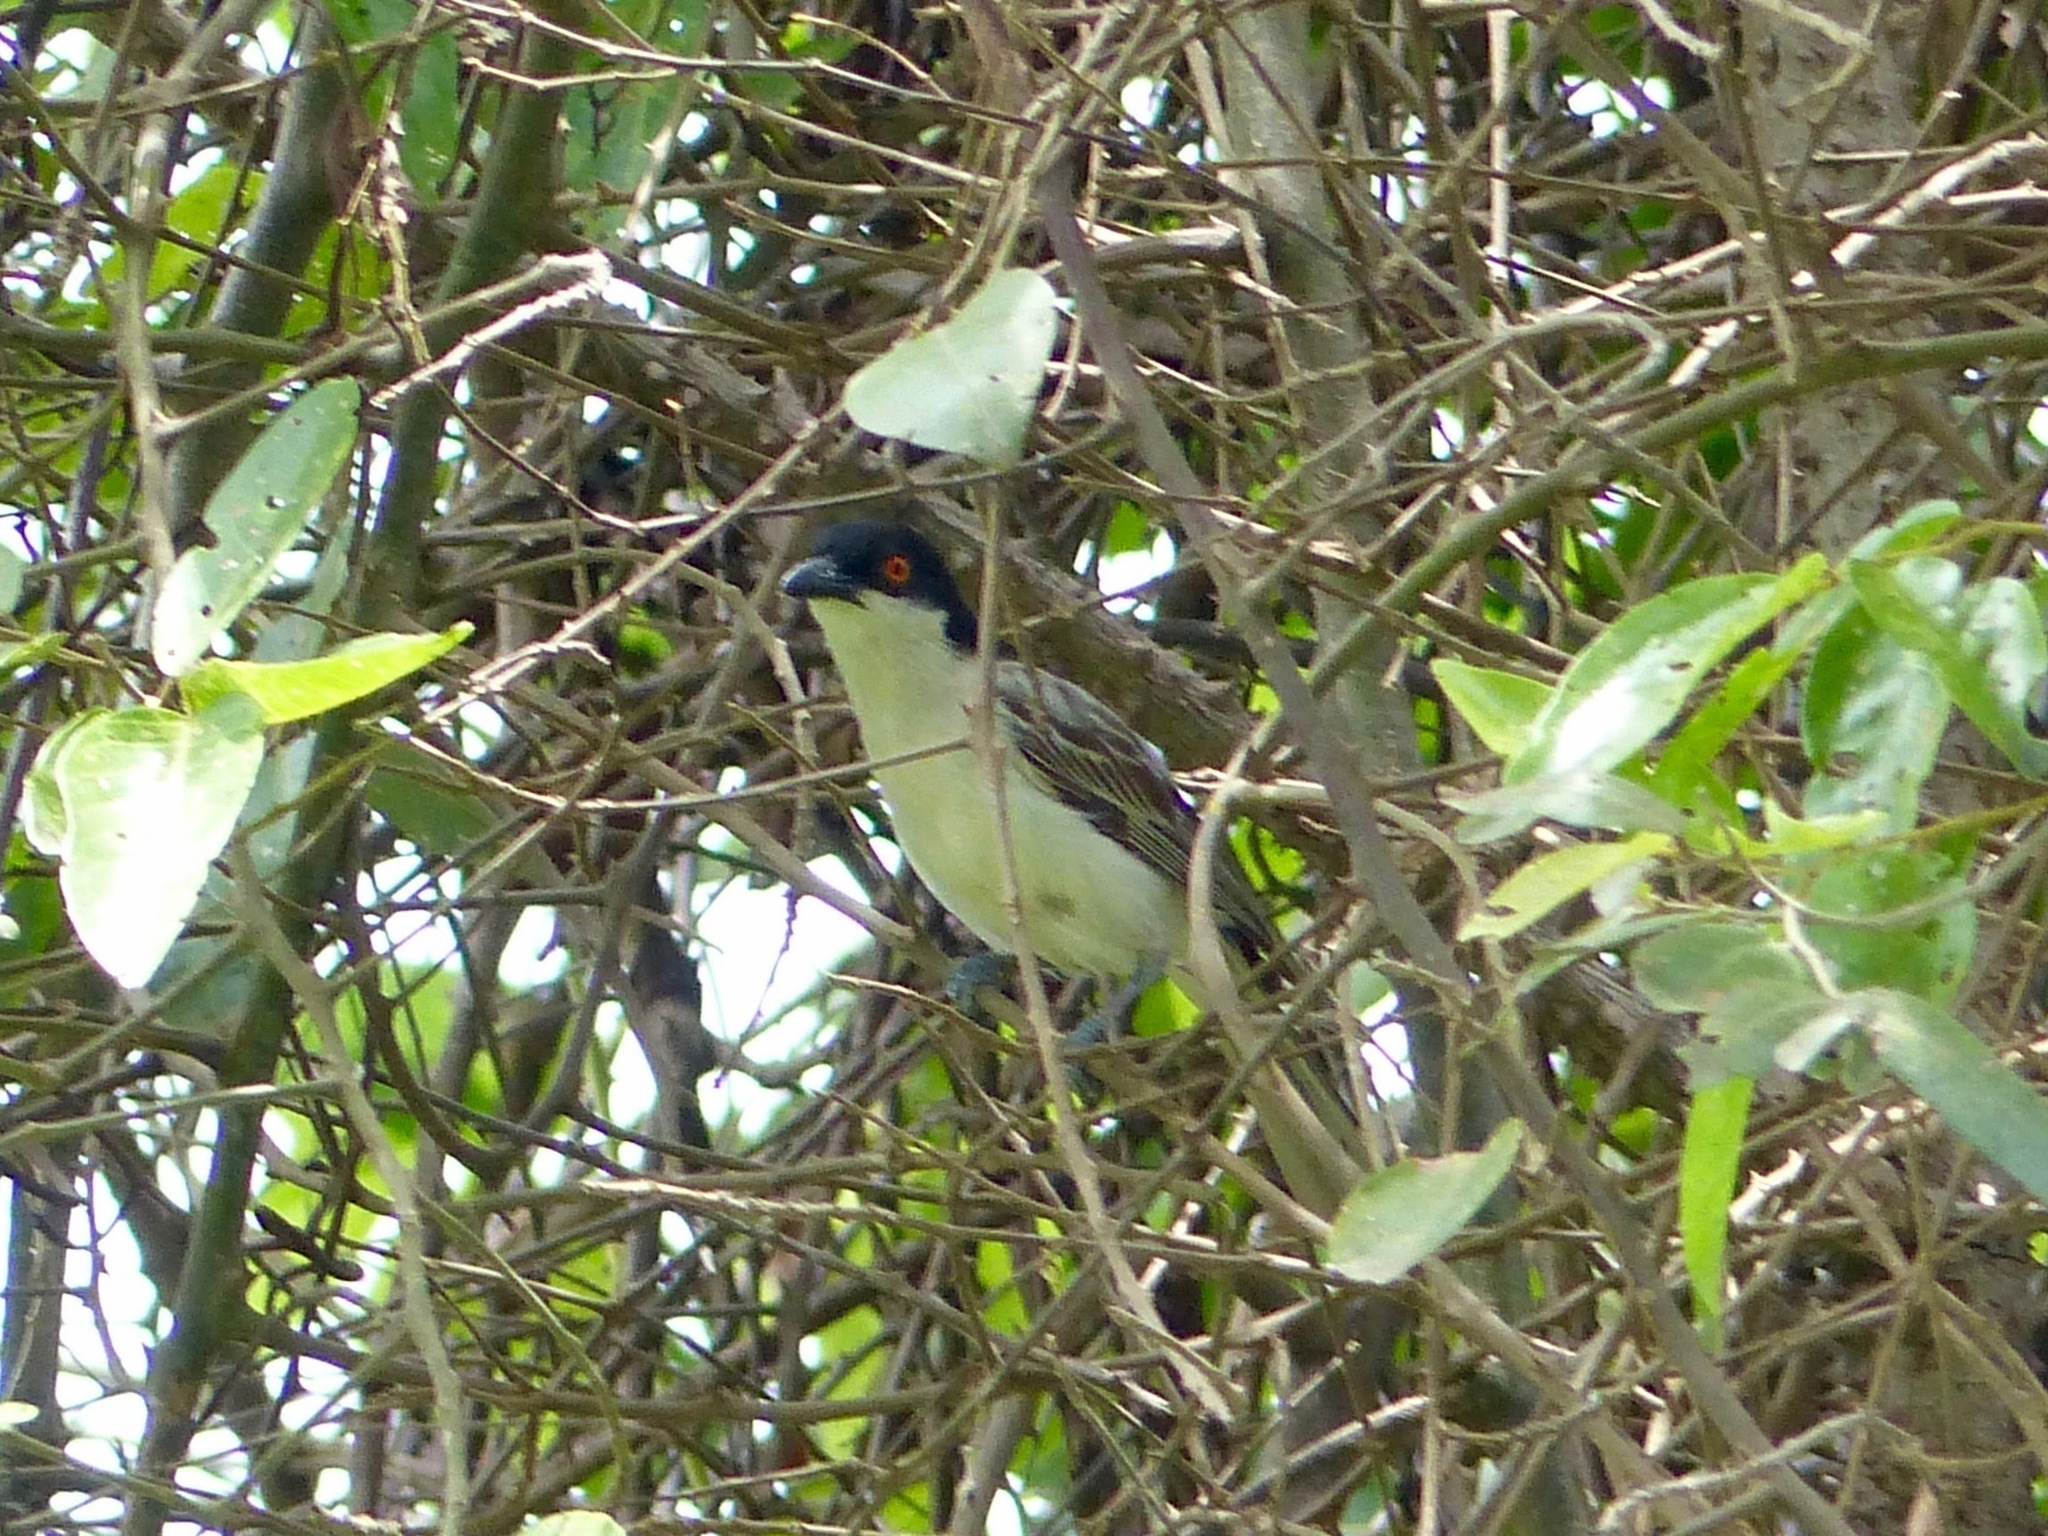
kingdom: Animalia
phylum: Chordata
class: Aves
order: Passeriformes
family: Malaconotidae
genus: Dryoscopus
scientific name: Dryoscopus gambensis
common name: Northern puffback
